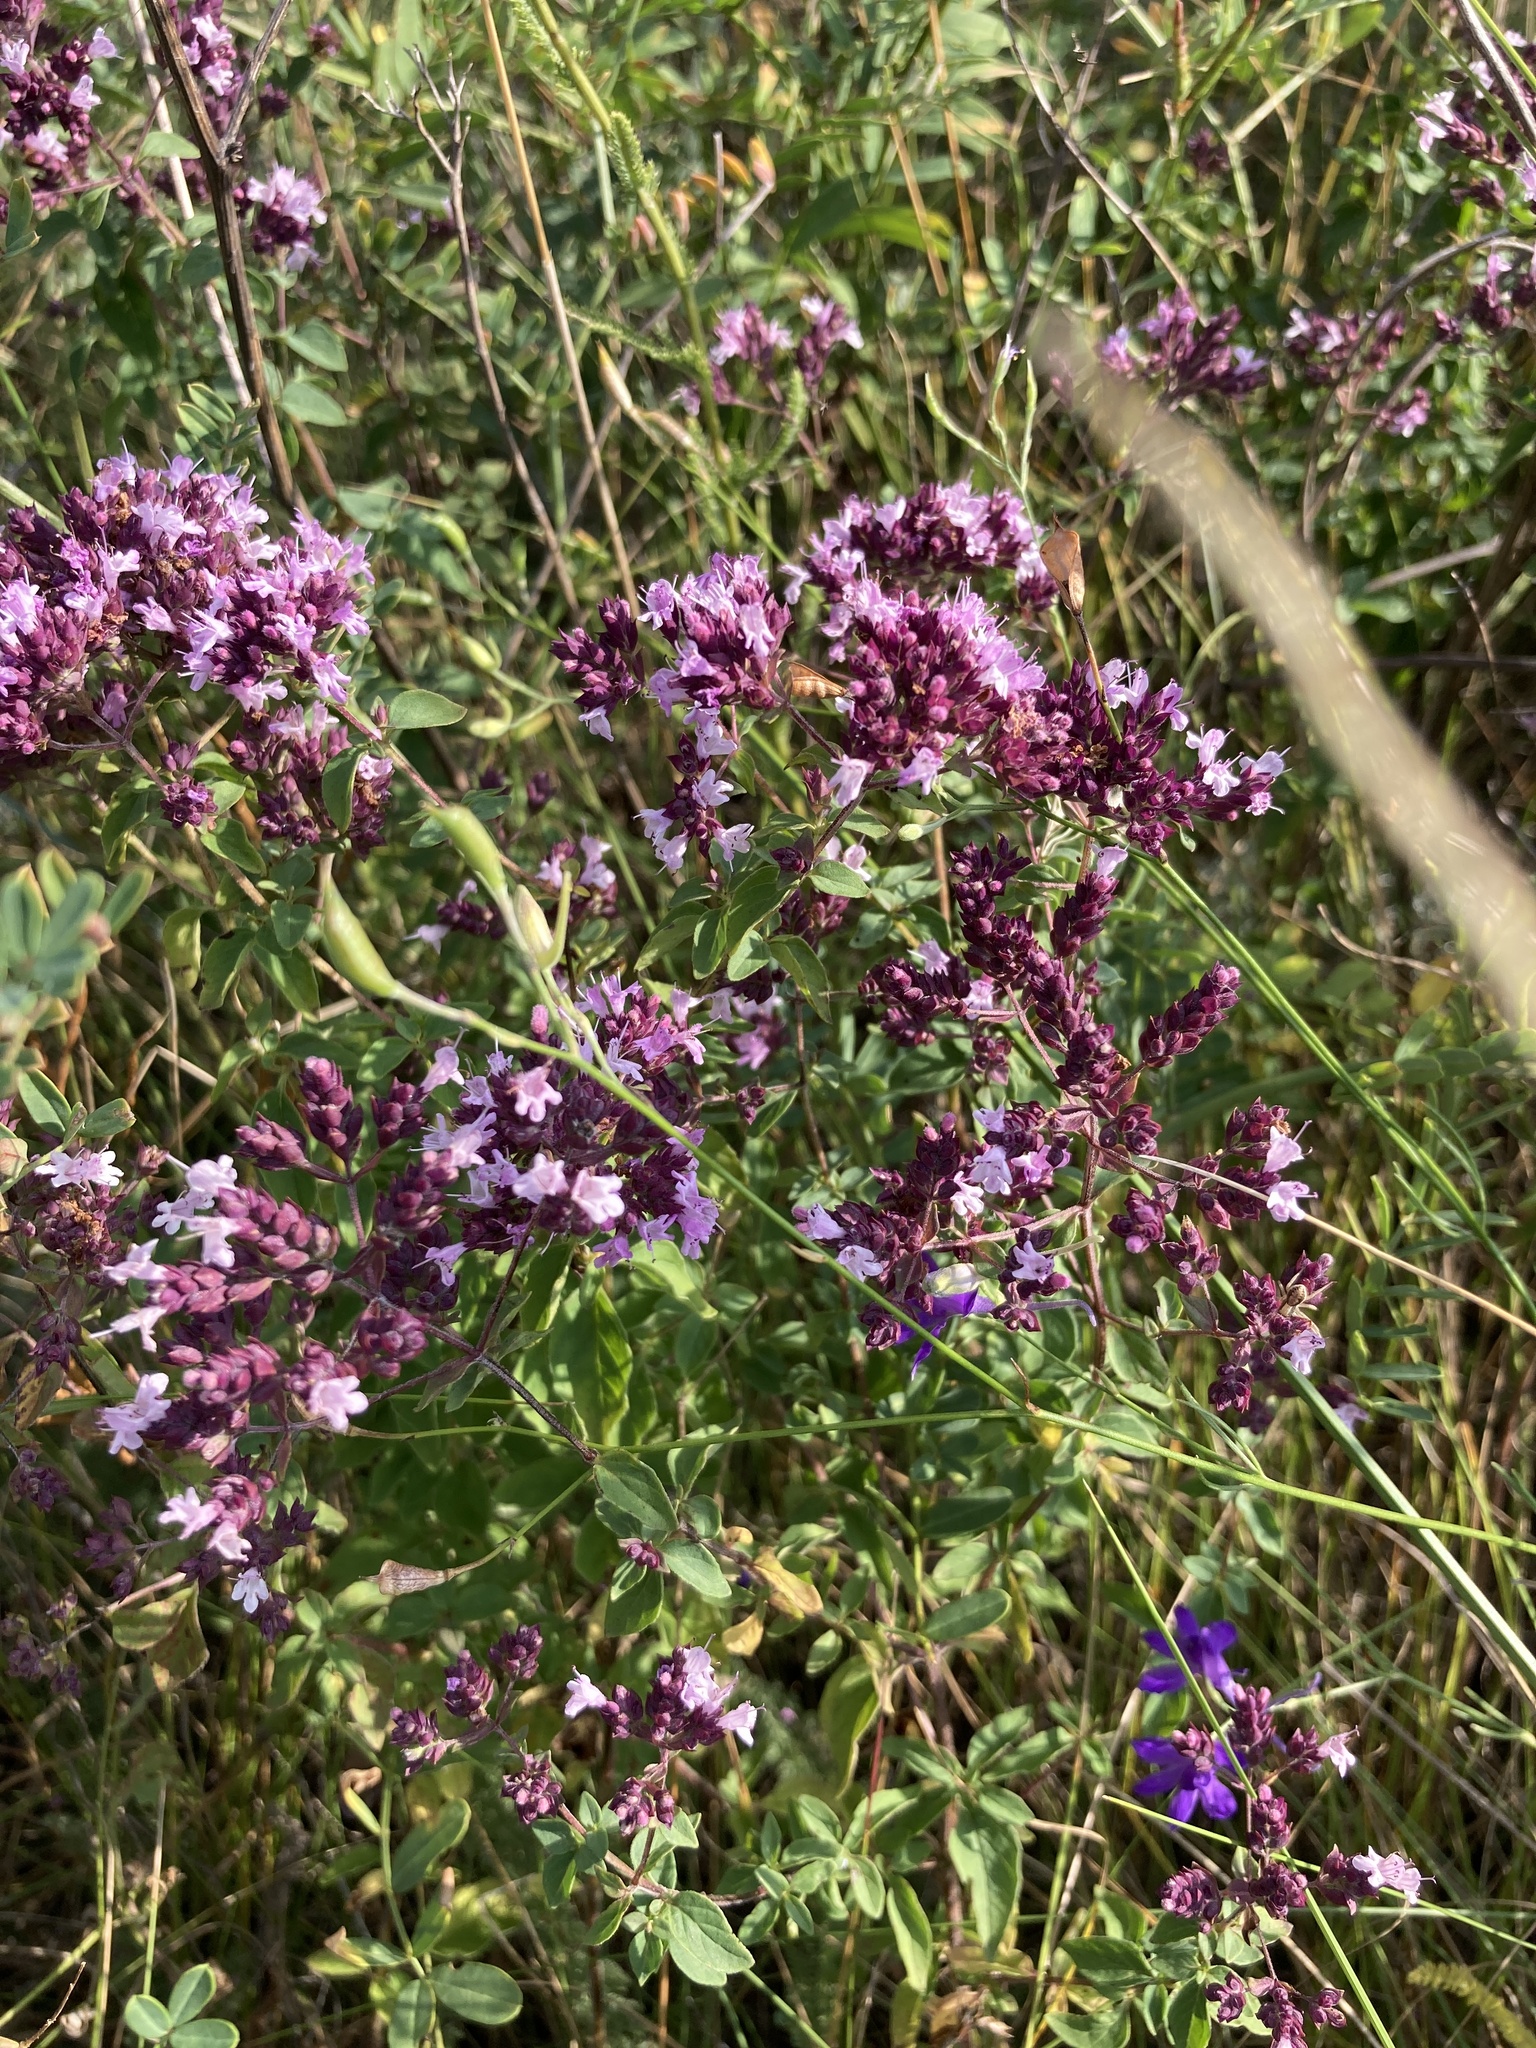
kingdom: Plantae
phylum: Tracheophyta
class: Magnoliopsida
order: Lamiales
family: Lamiaceae
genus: Origanum
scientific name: Origanum vulgare
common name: Wild marjoram
